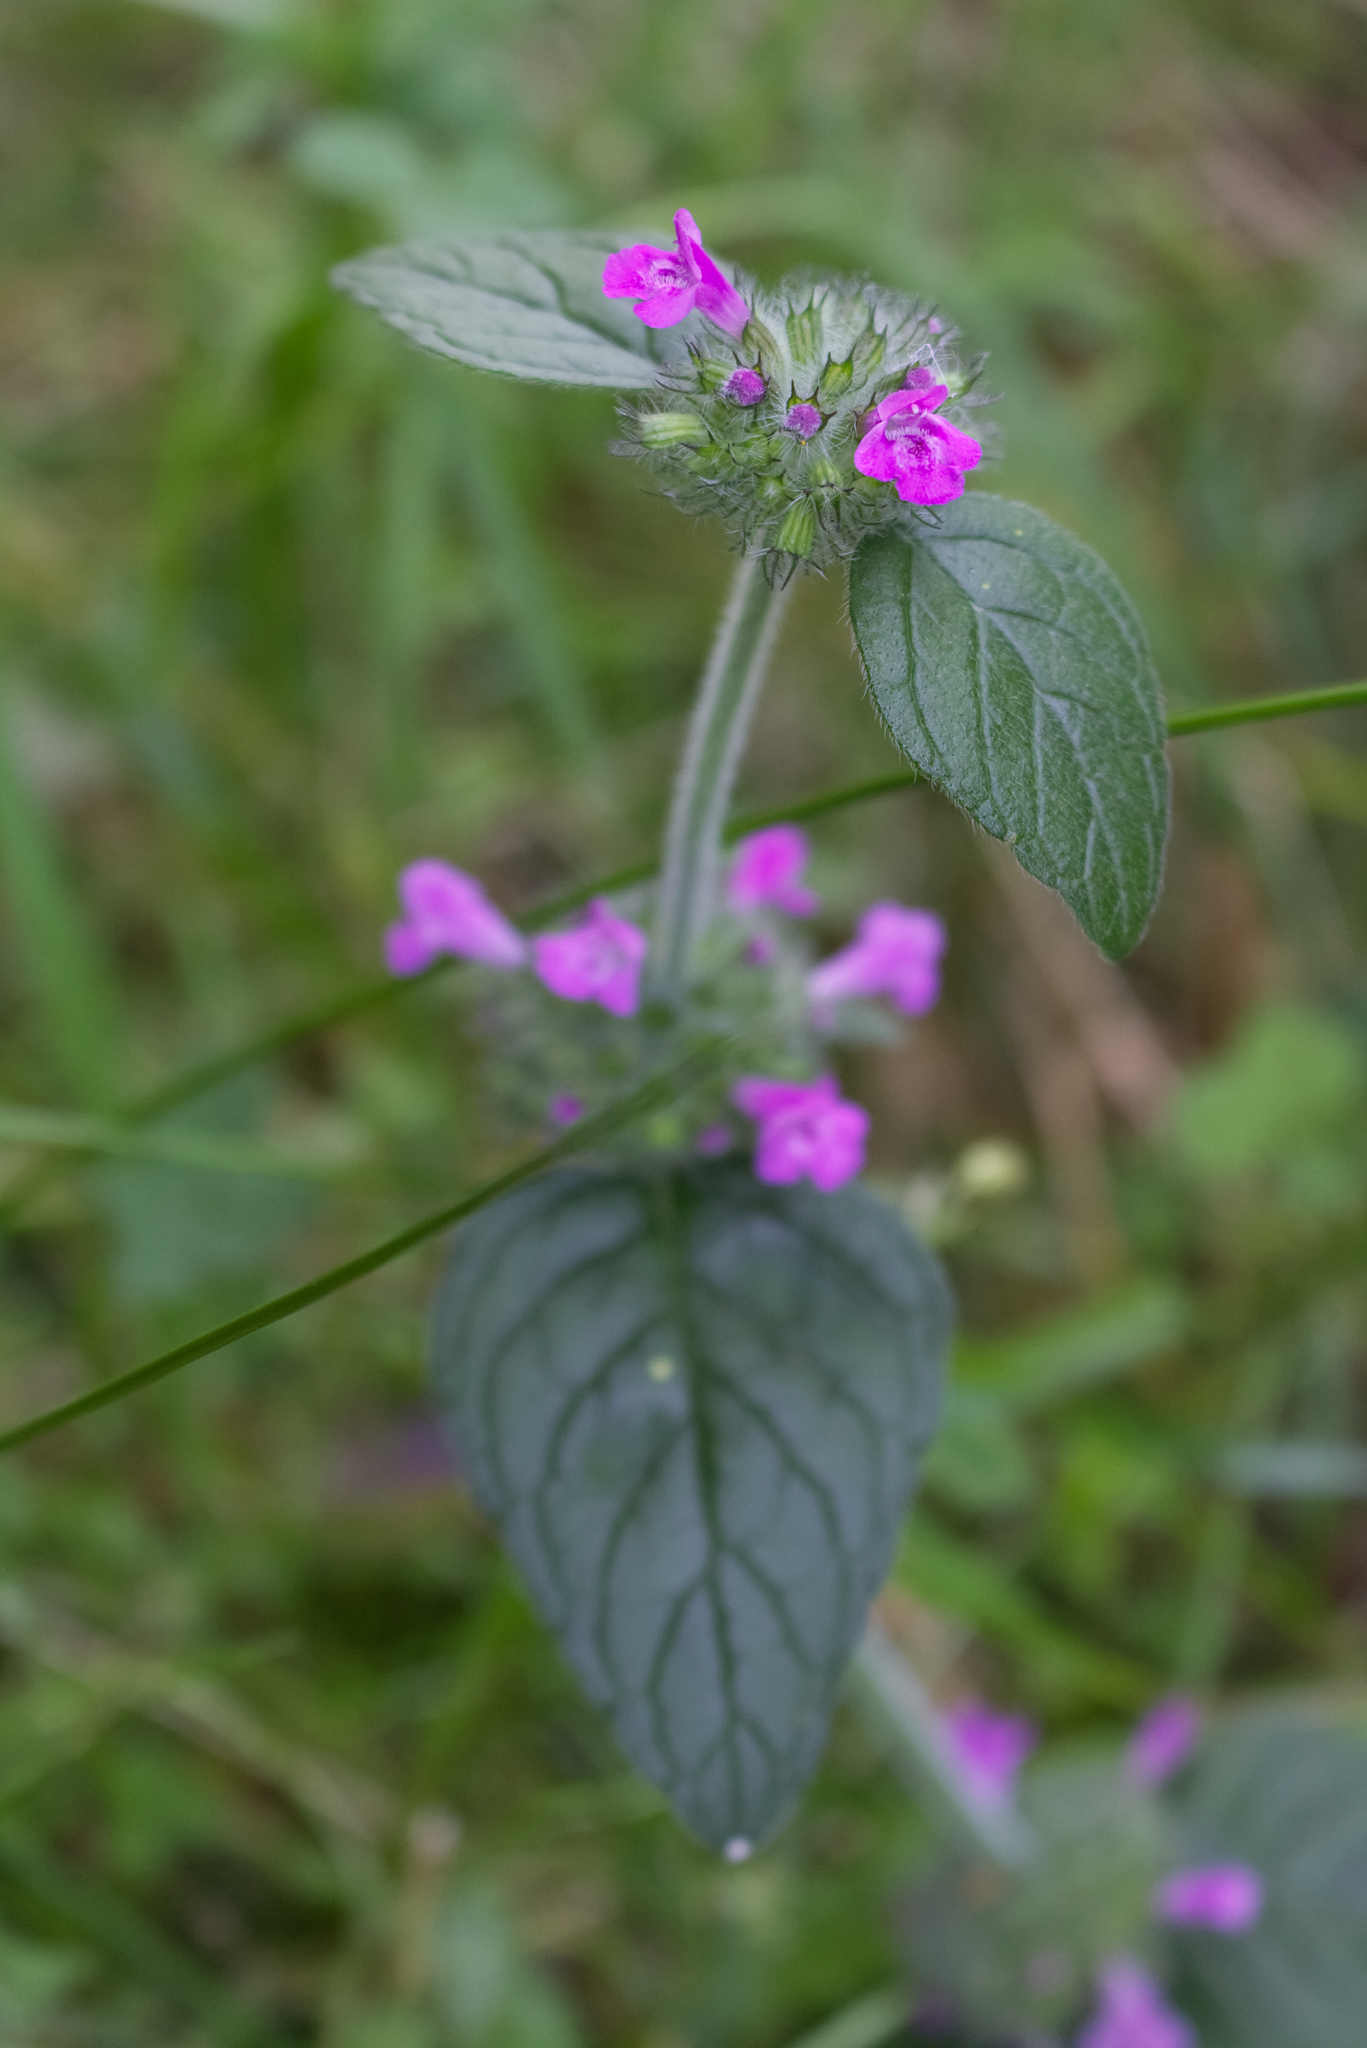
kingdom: Plantae
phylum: Tracheophyta
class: Magnoliopsida
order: Lamiales
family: Lamiaceae
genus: Clinopodium
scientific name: Clinopodium vulgare
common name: Wild basil
